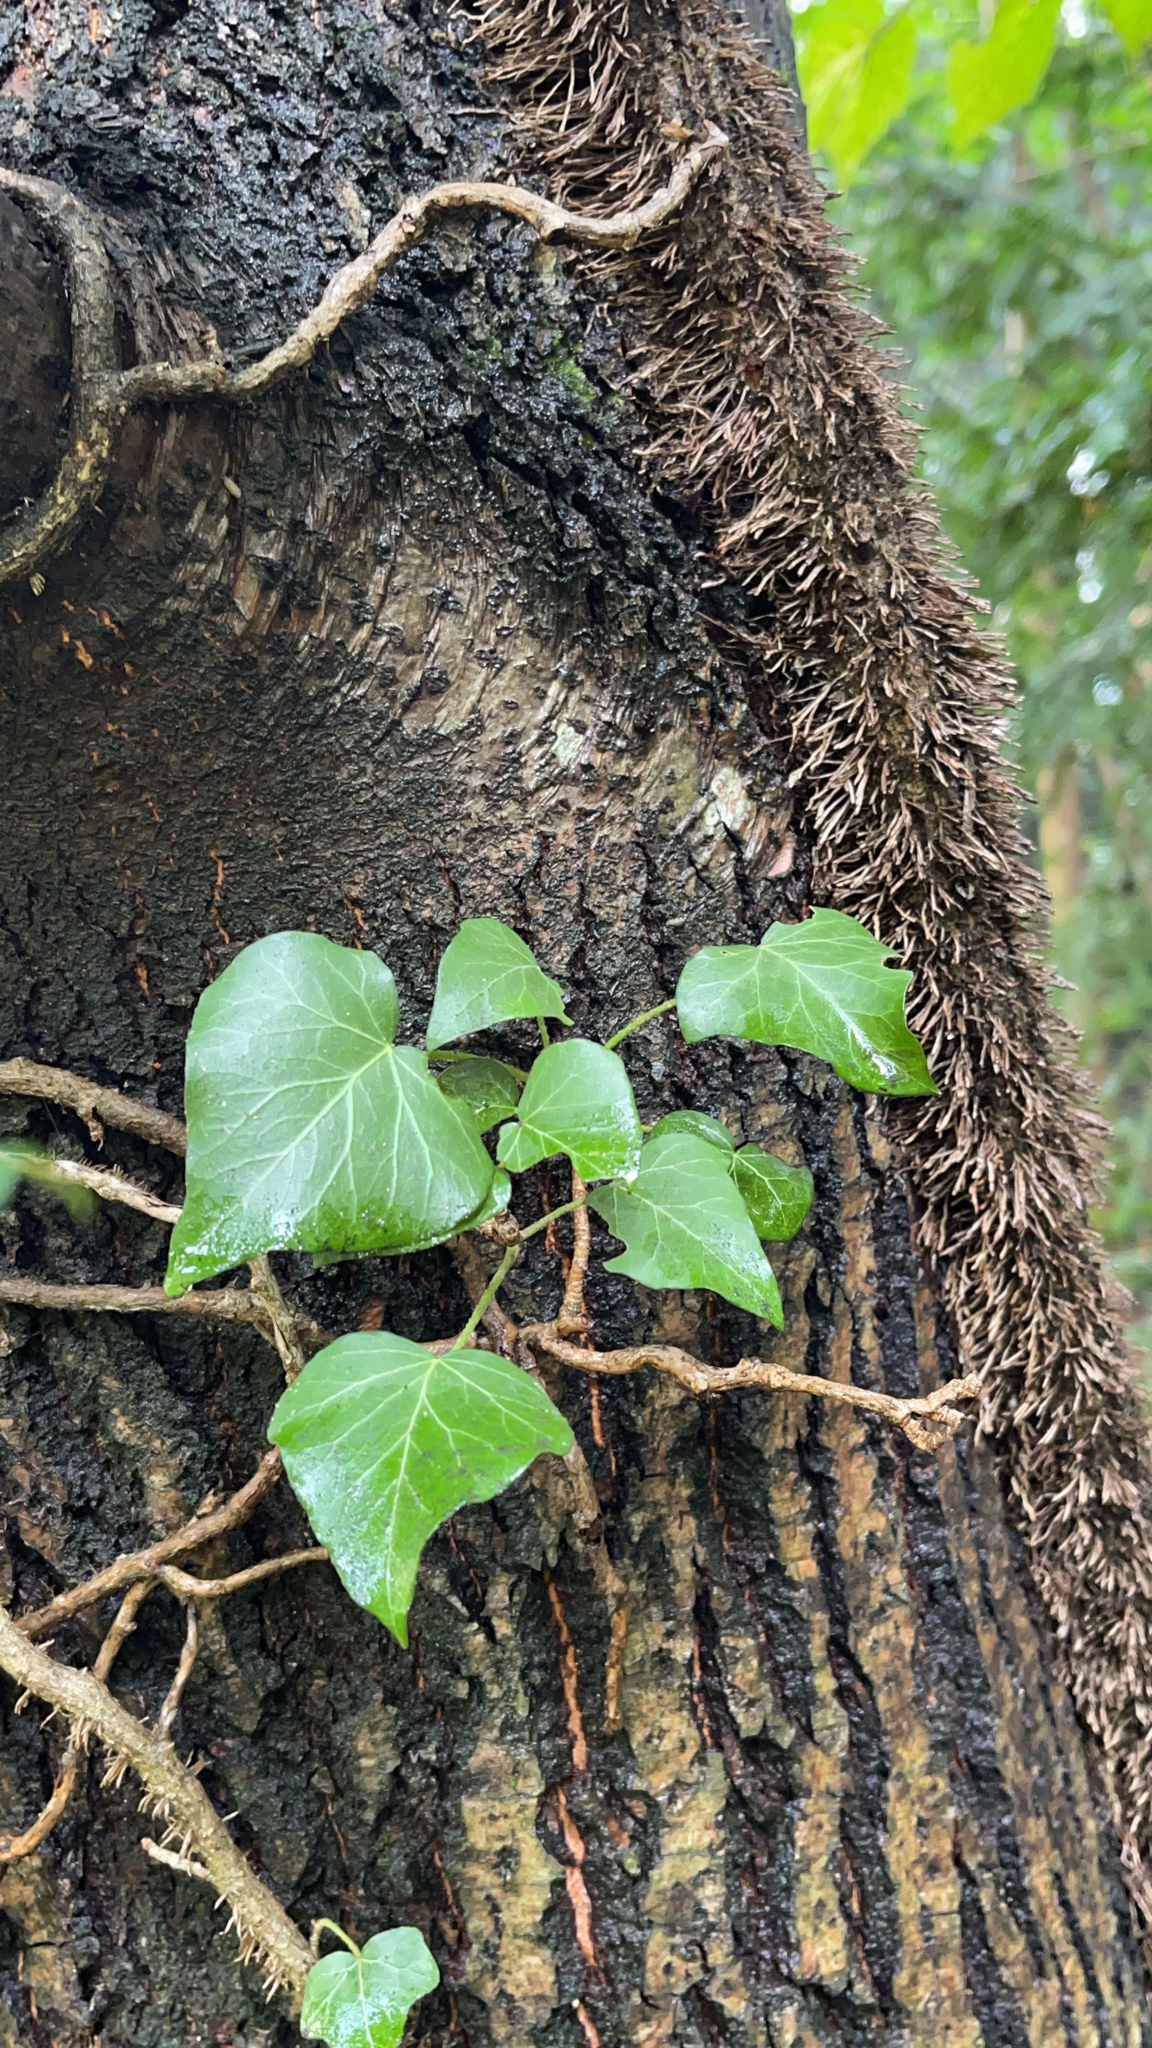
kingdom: Plantae
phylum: Tracheophyta
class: Magnoliopsida
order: Apiales
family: Araliaceae
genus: Hedera
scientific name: Hedera helix
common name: Ivy
